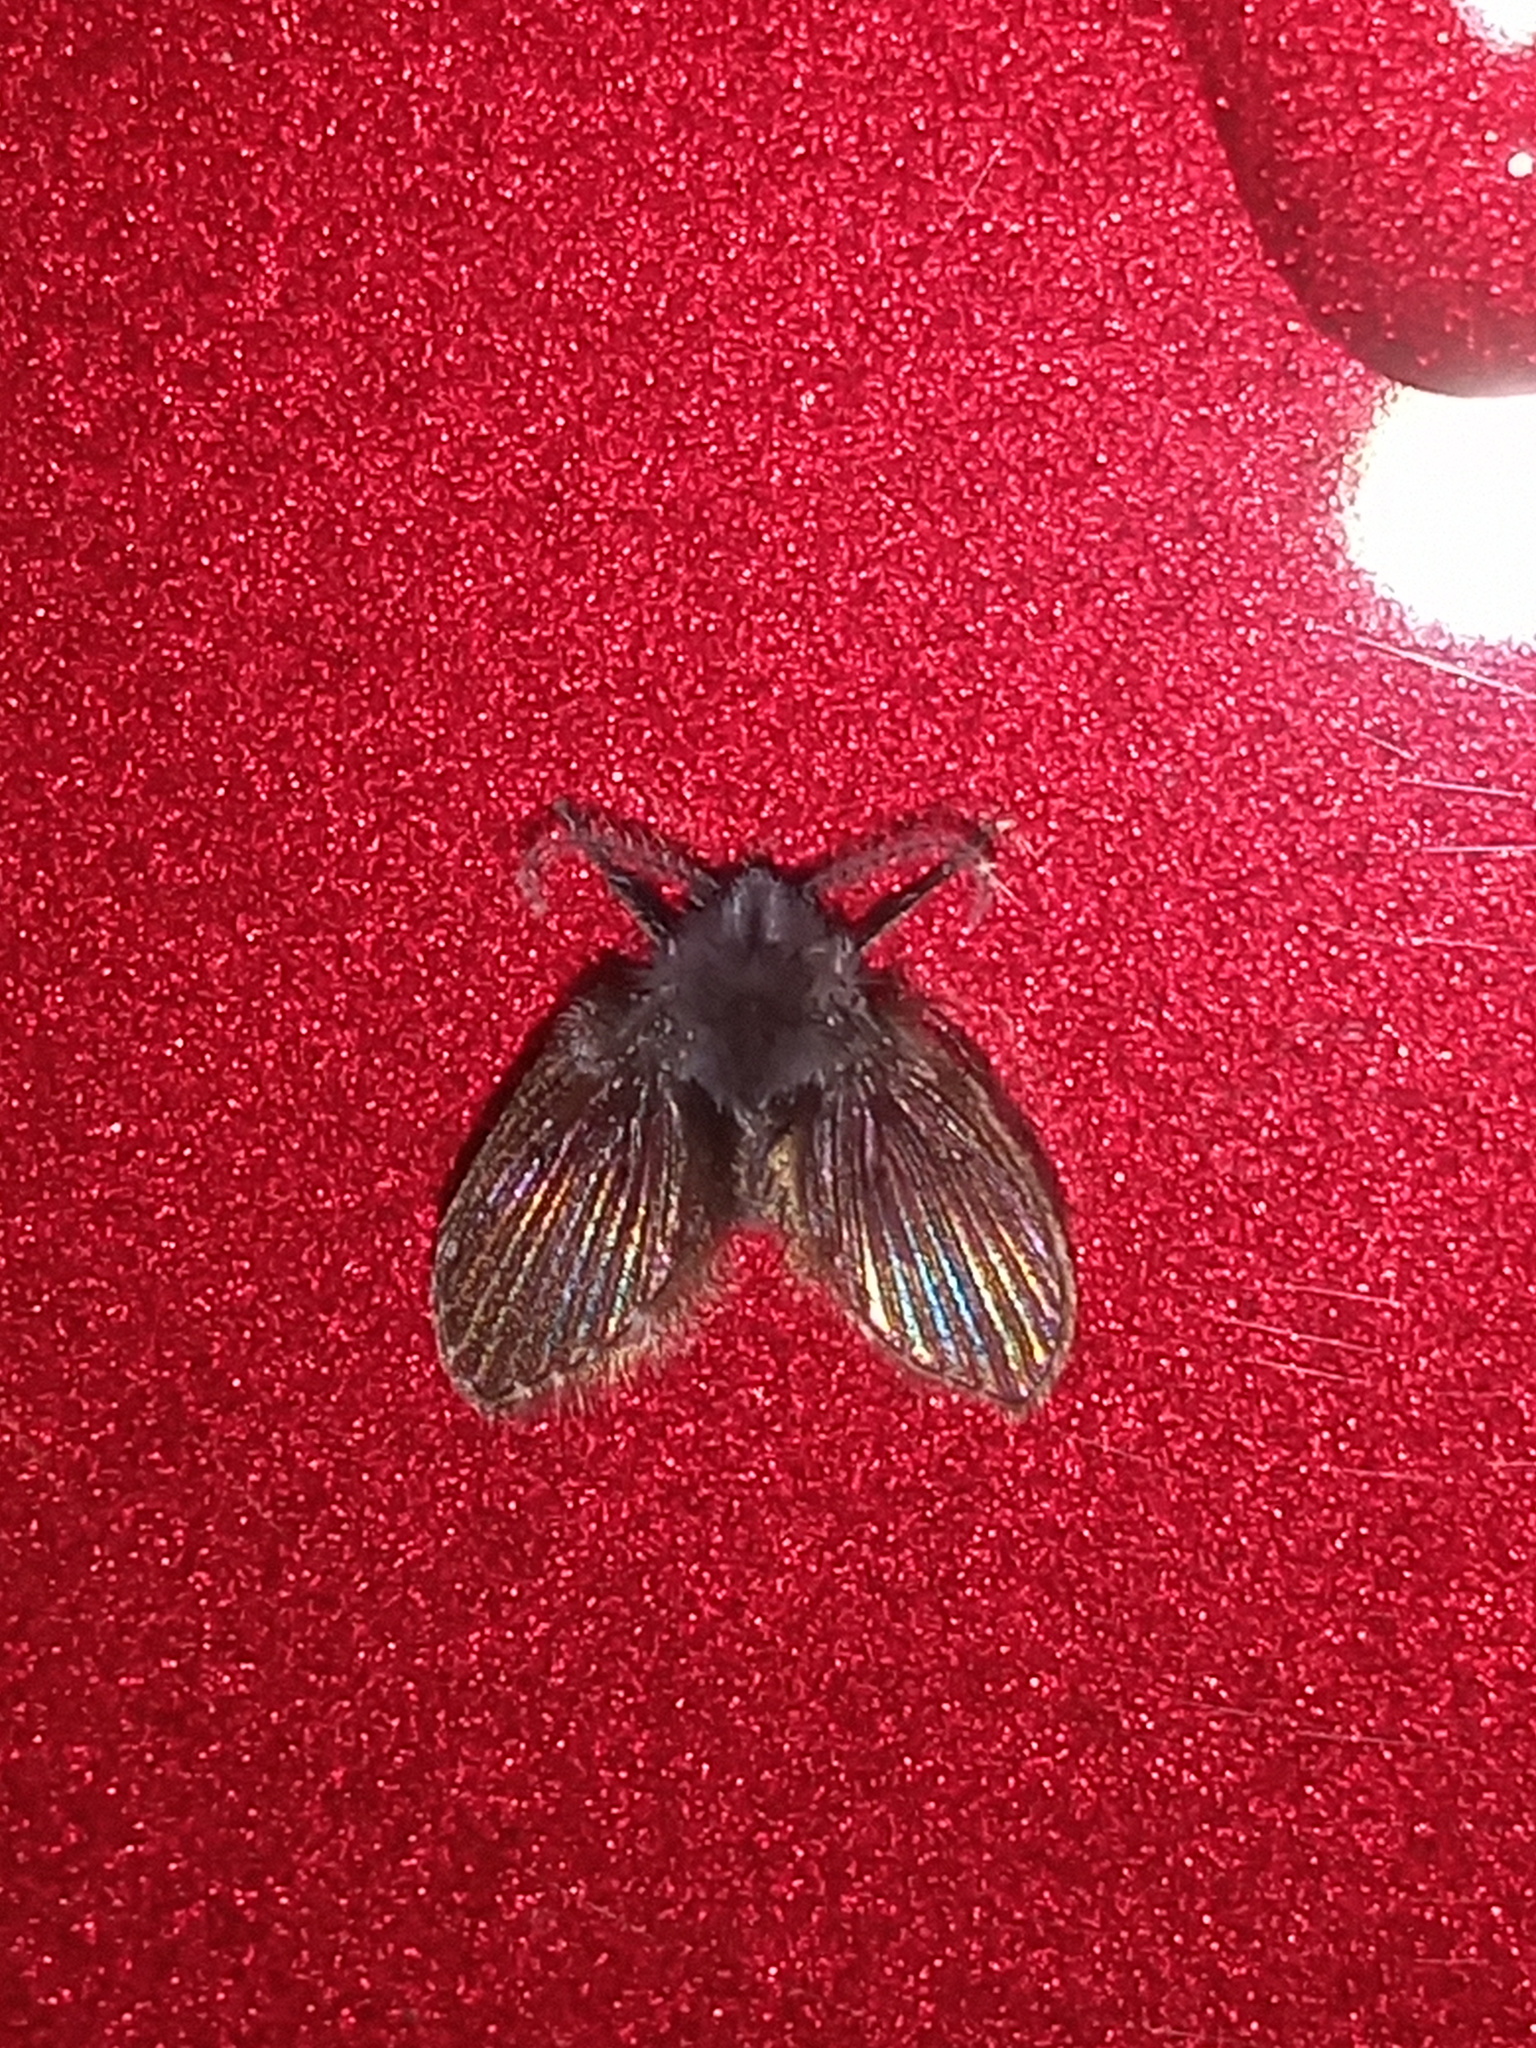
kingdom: Animalia
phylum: Arthropoda
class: Insecta
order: Diptera
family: Psychodidae
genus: Clogmia
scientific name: Clogmia albipunctatus
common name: White-spotted moth fly
